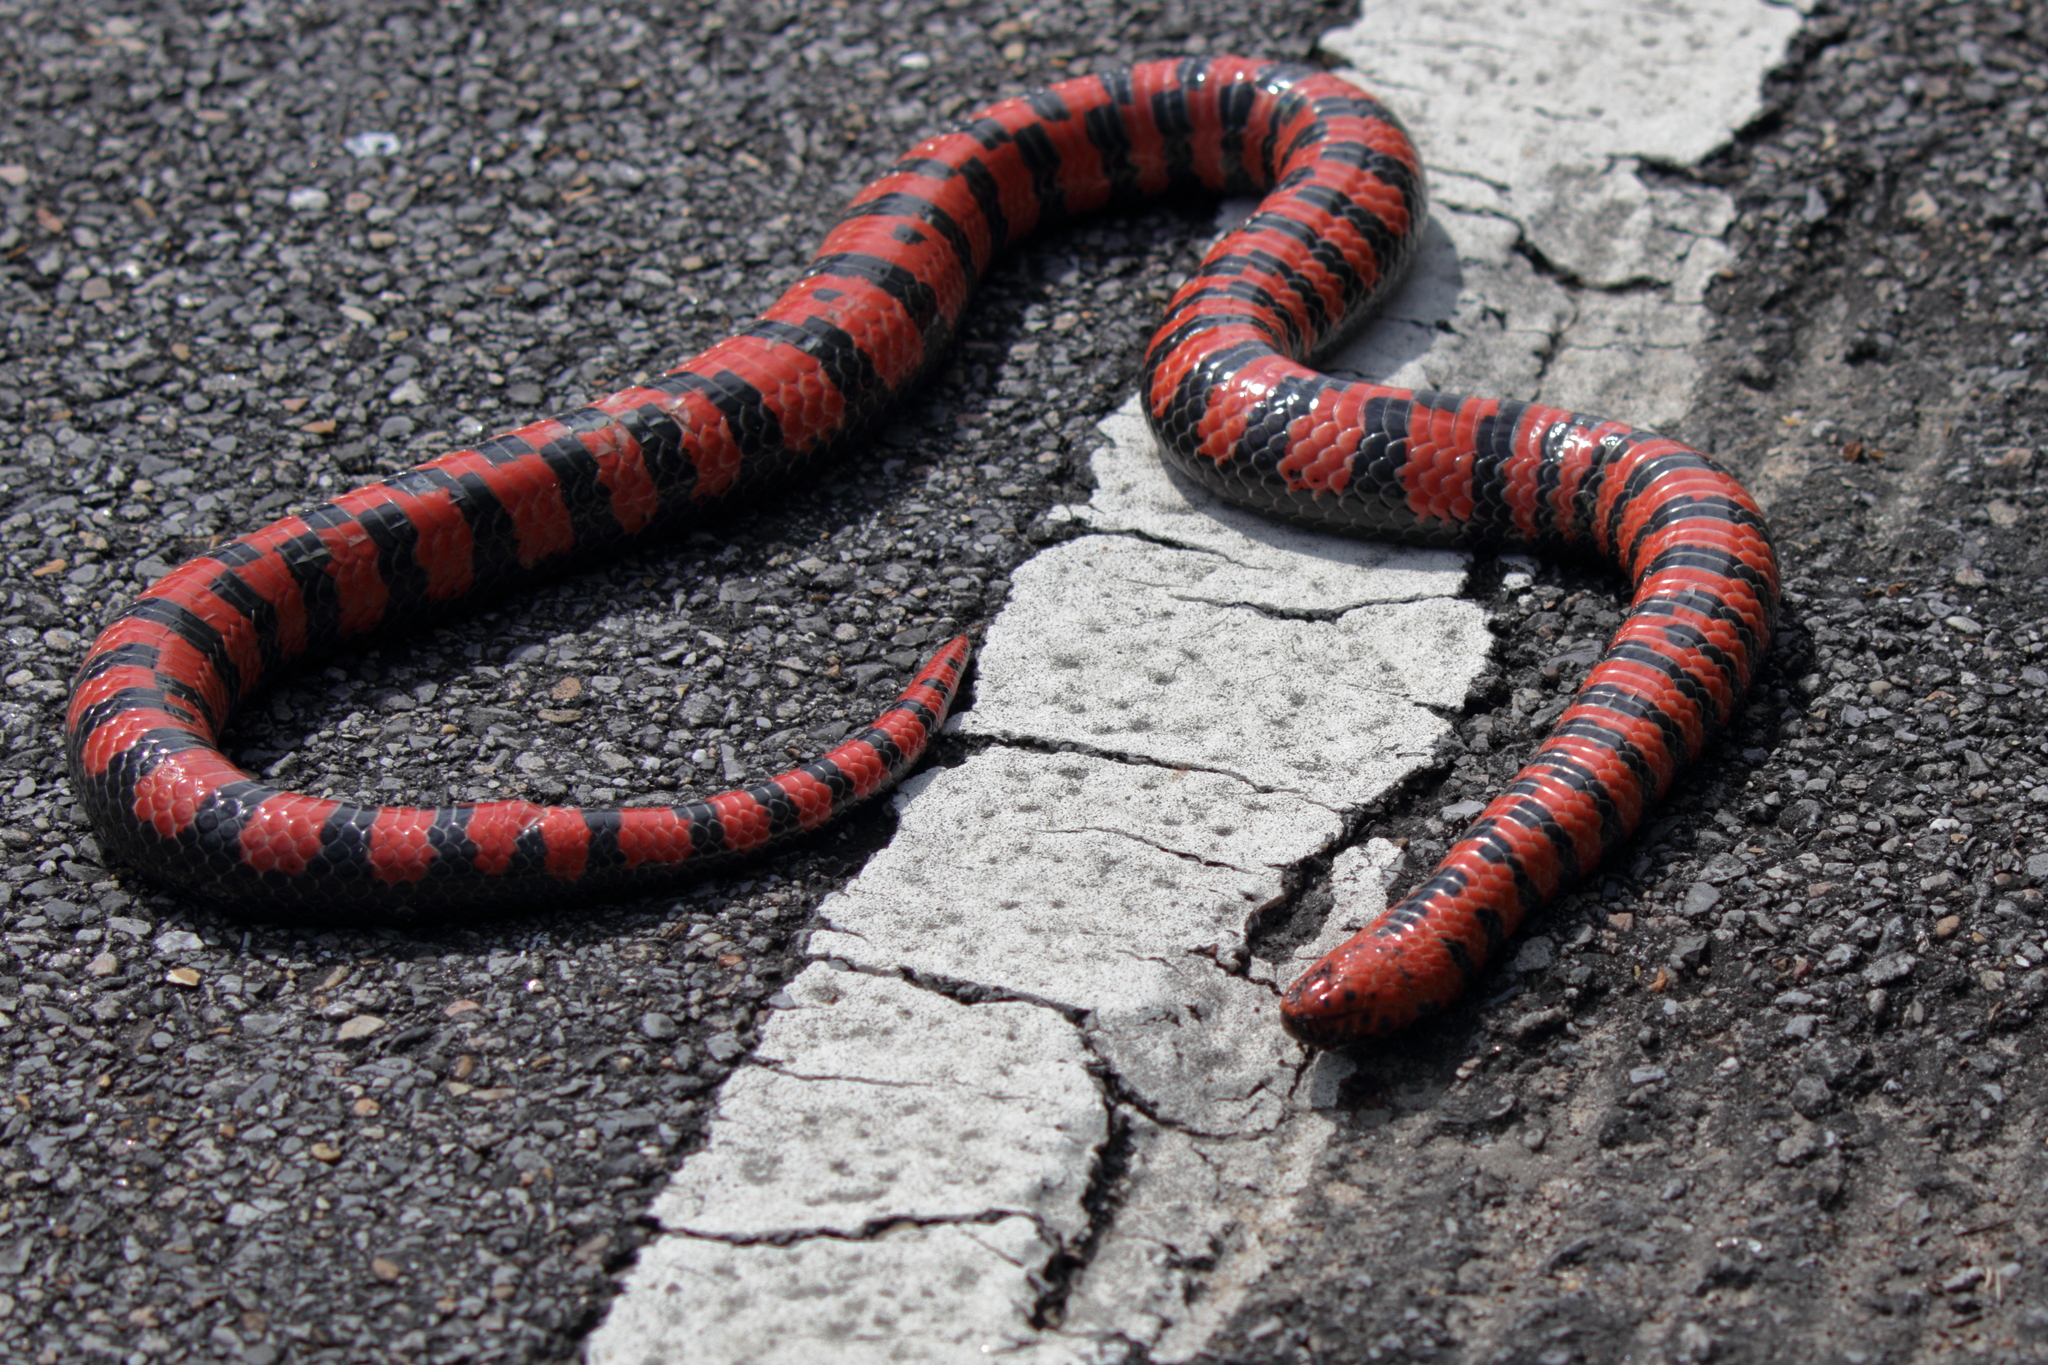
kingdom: Animalia
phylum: Chordata
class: Squamata
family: Colubridae
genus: Farancia
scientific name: Farancia abacura
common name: Mud snake
